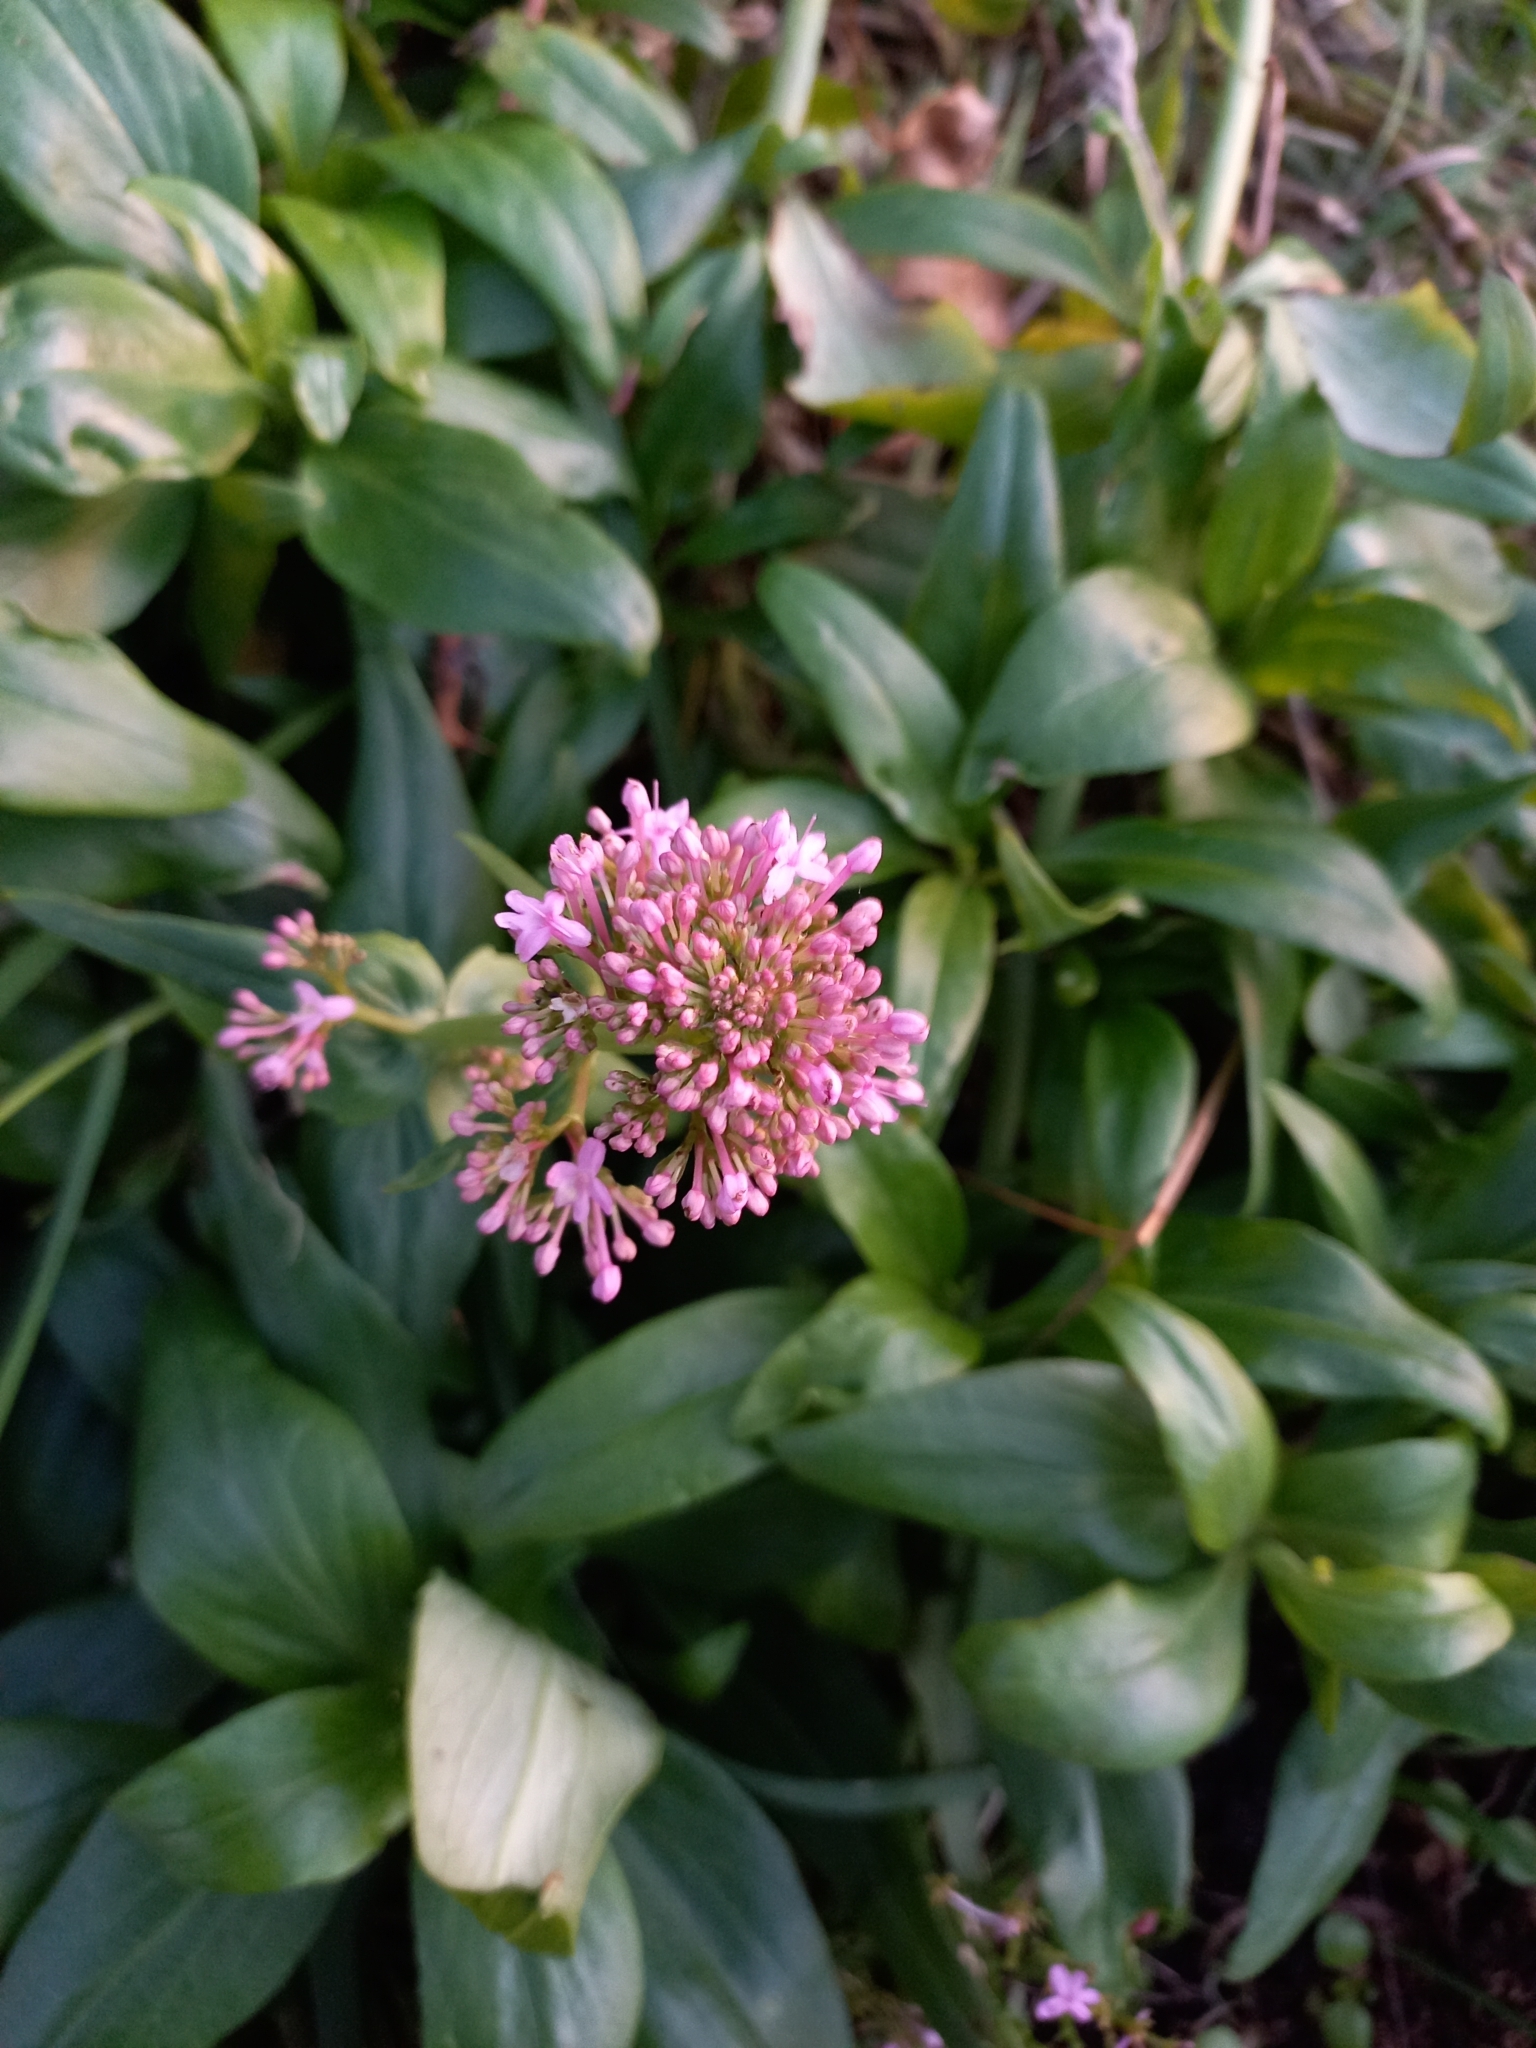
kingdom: Plantae
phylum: Tracheophyta
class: Magnoliopsida
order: Dipsacales
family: Caprifoliaceae
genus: Centranthus
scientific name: Centranthus ruber
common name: Red valerian
